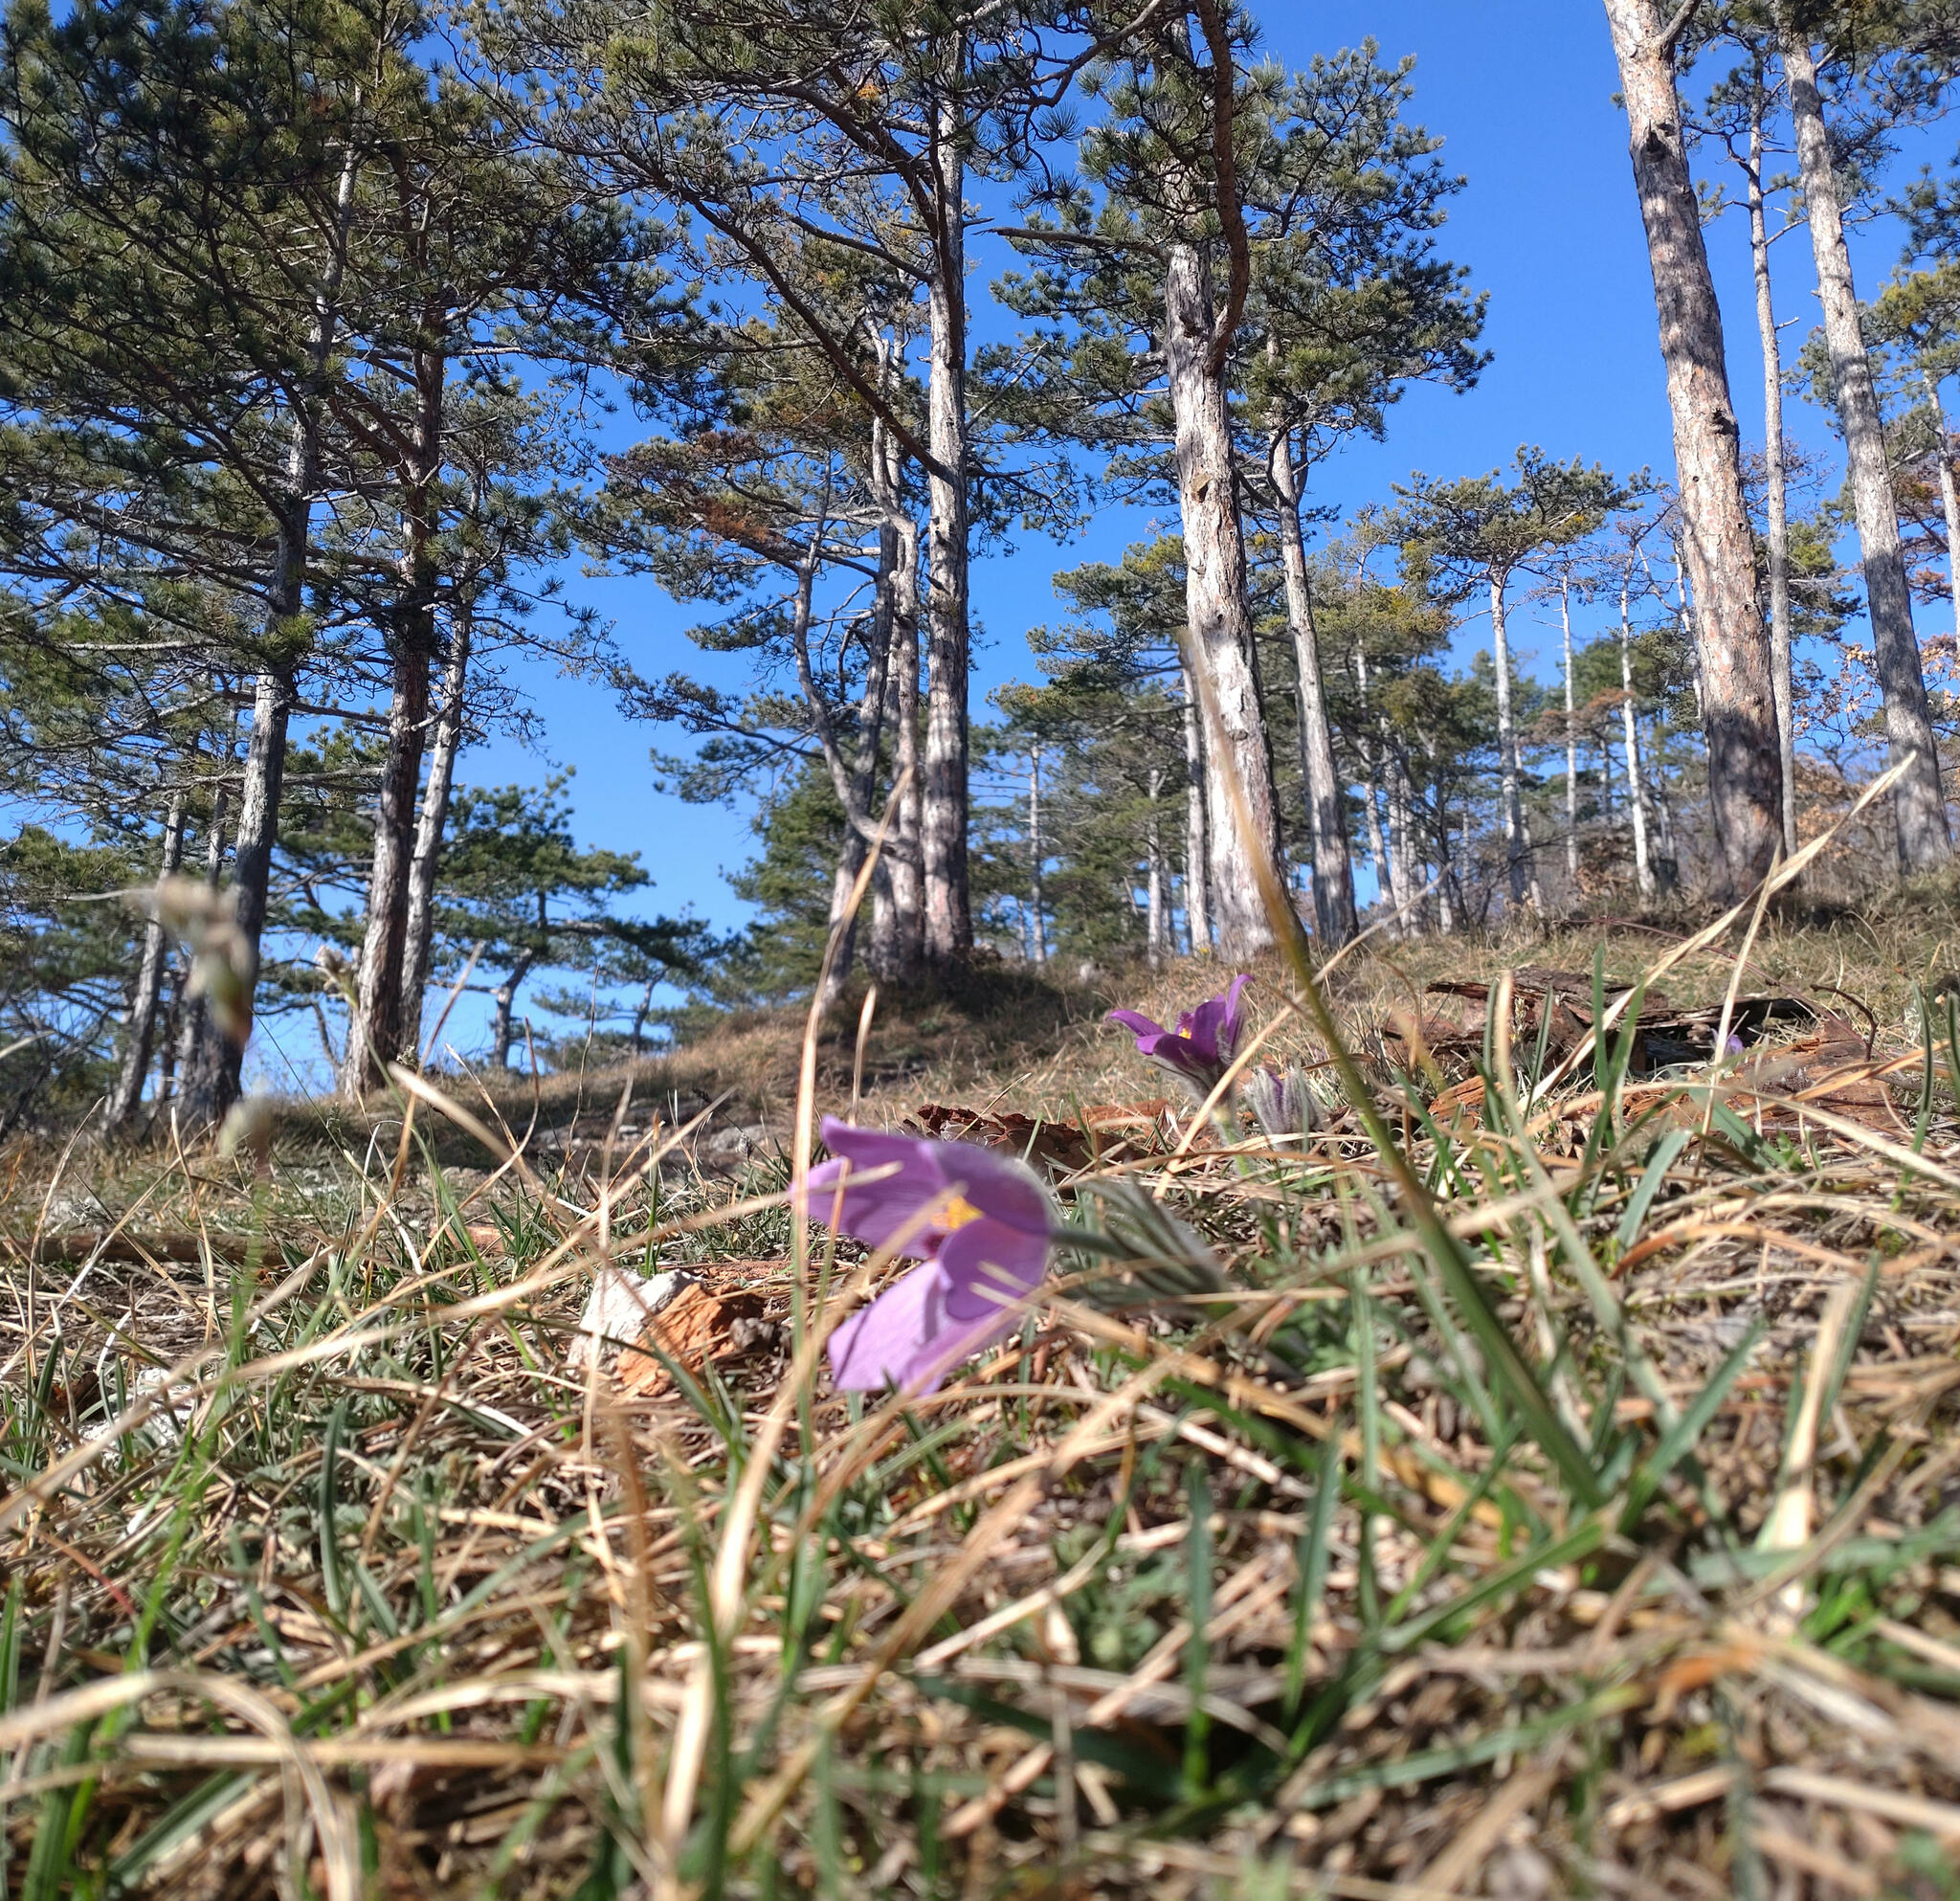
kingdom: Plantae
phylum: Tracheophyta
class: Magnoliopsida
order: Ranunculales
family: Ranunculaceae
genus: Pulsatilla
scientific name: Pulsatilla grandis
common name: Greater pasque flower
